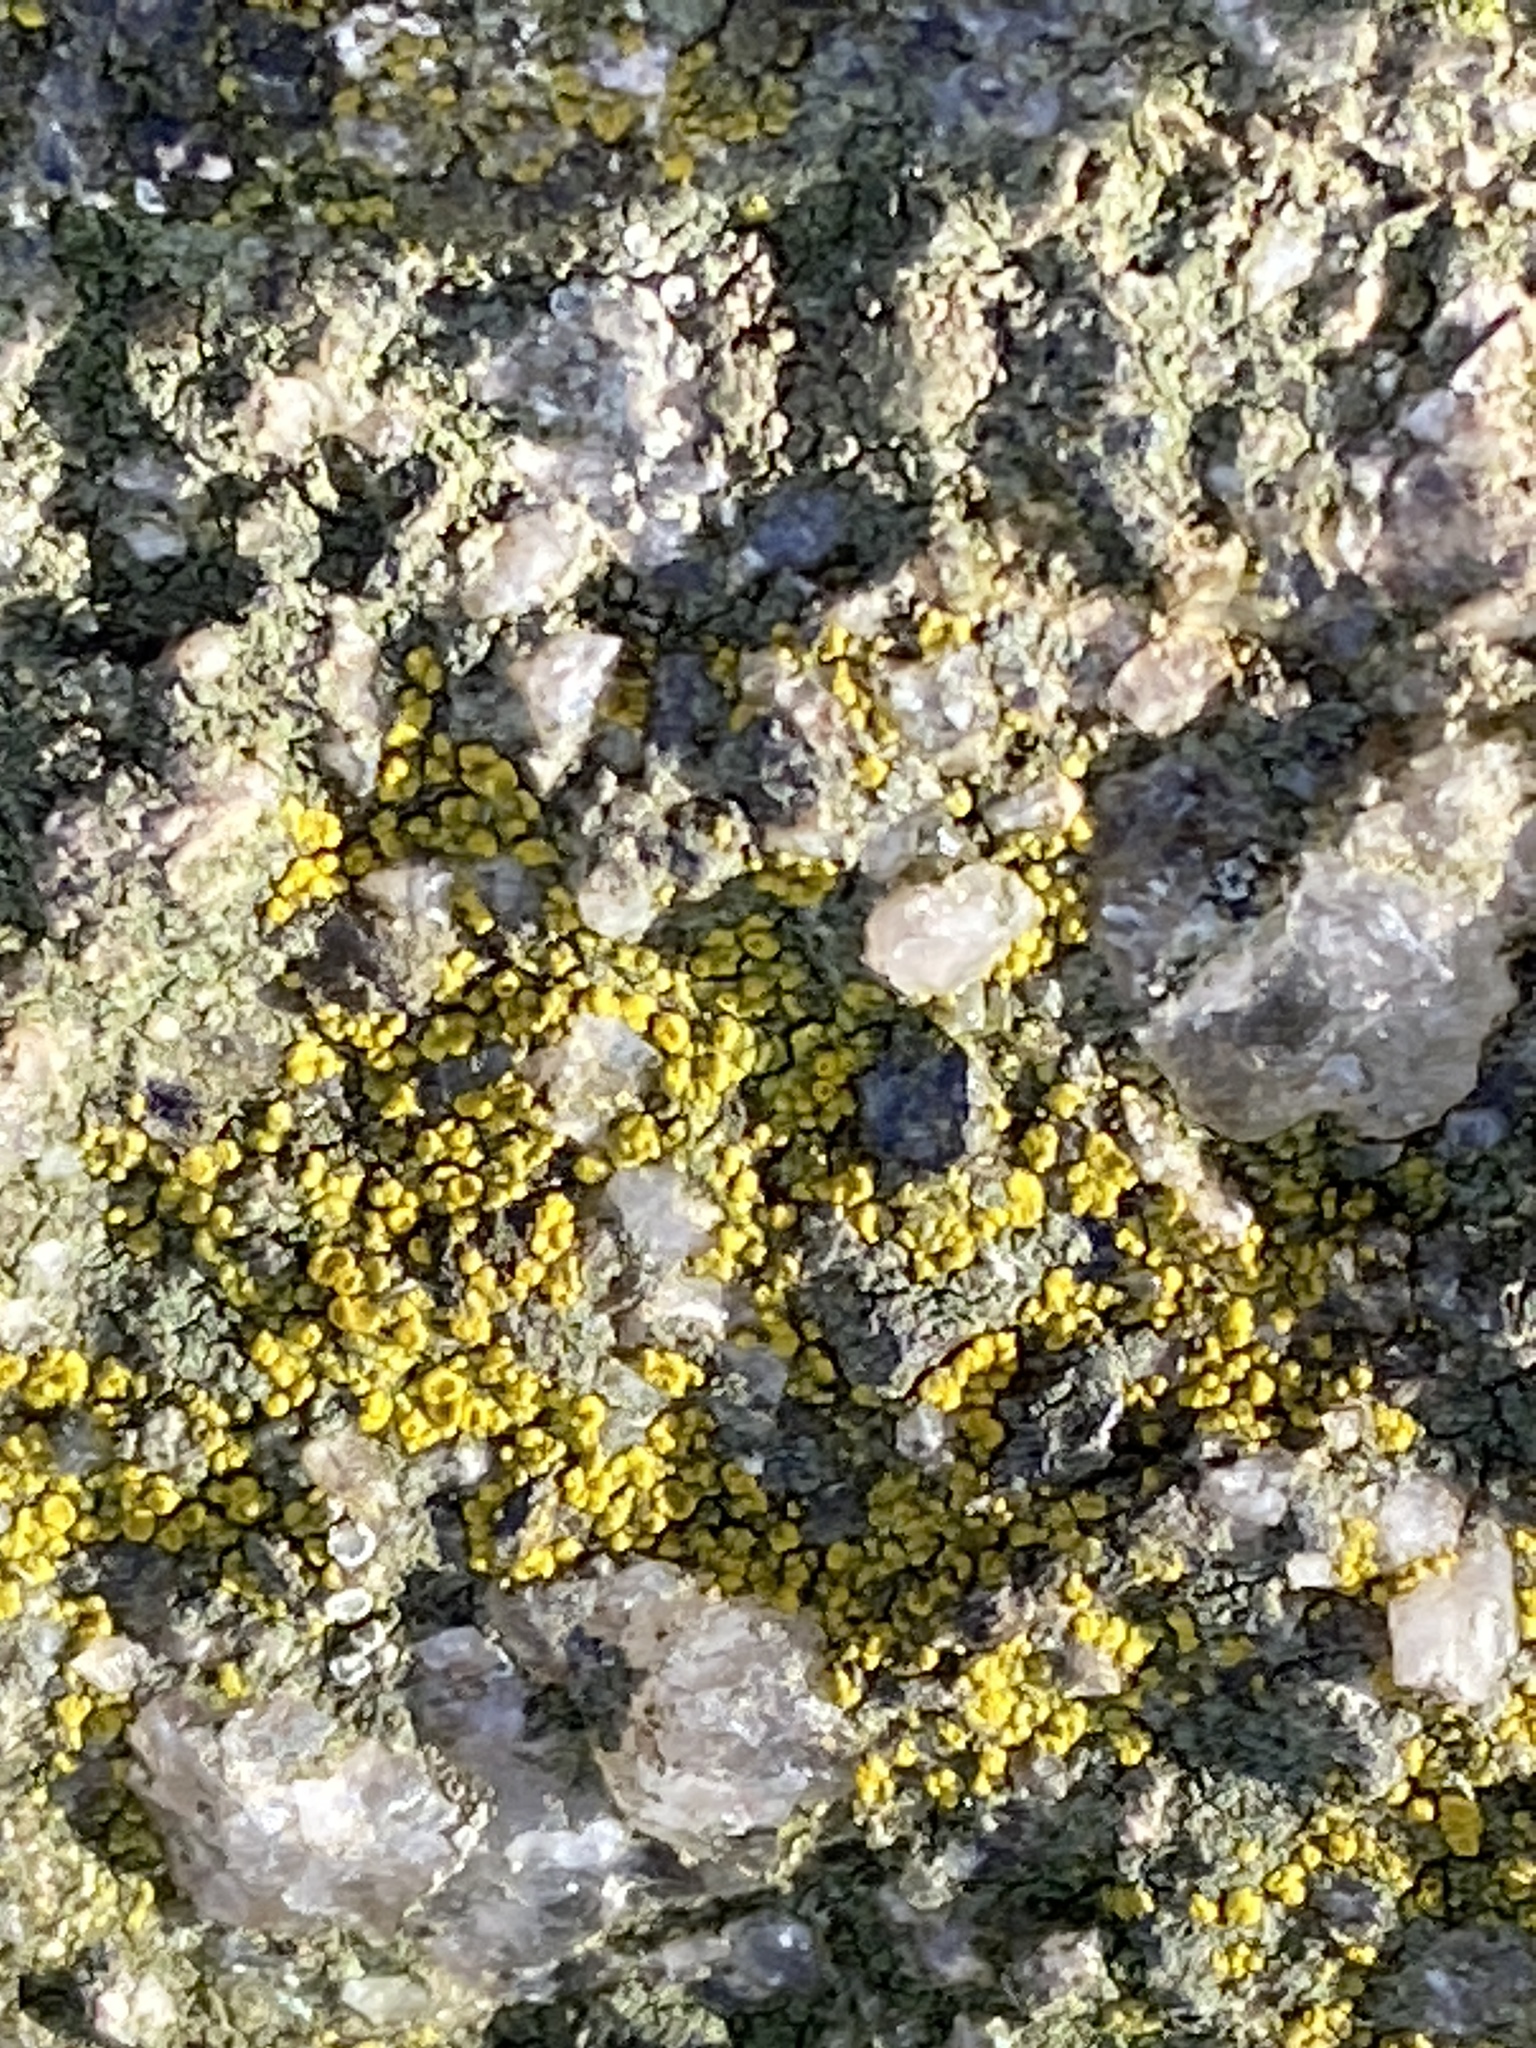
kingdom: Fungi
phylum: Ascomycota
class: Candelariomycetes
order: Candelariales
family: Candelariaceae
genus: Candelariella
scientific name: Candelariella vitellina
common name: Common goldspeck
